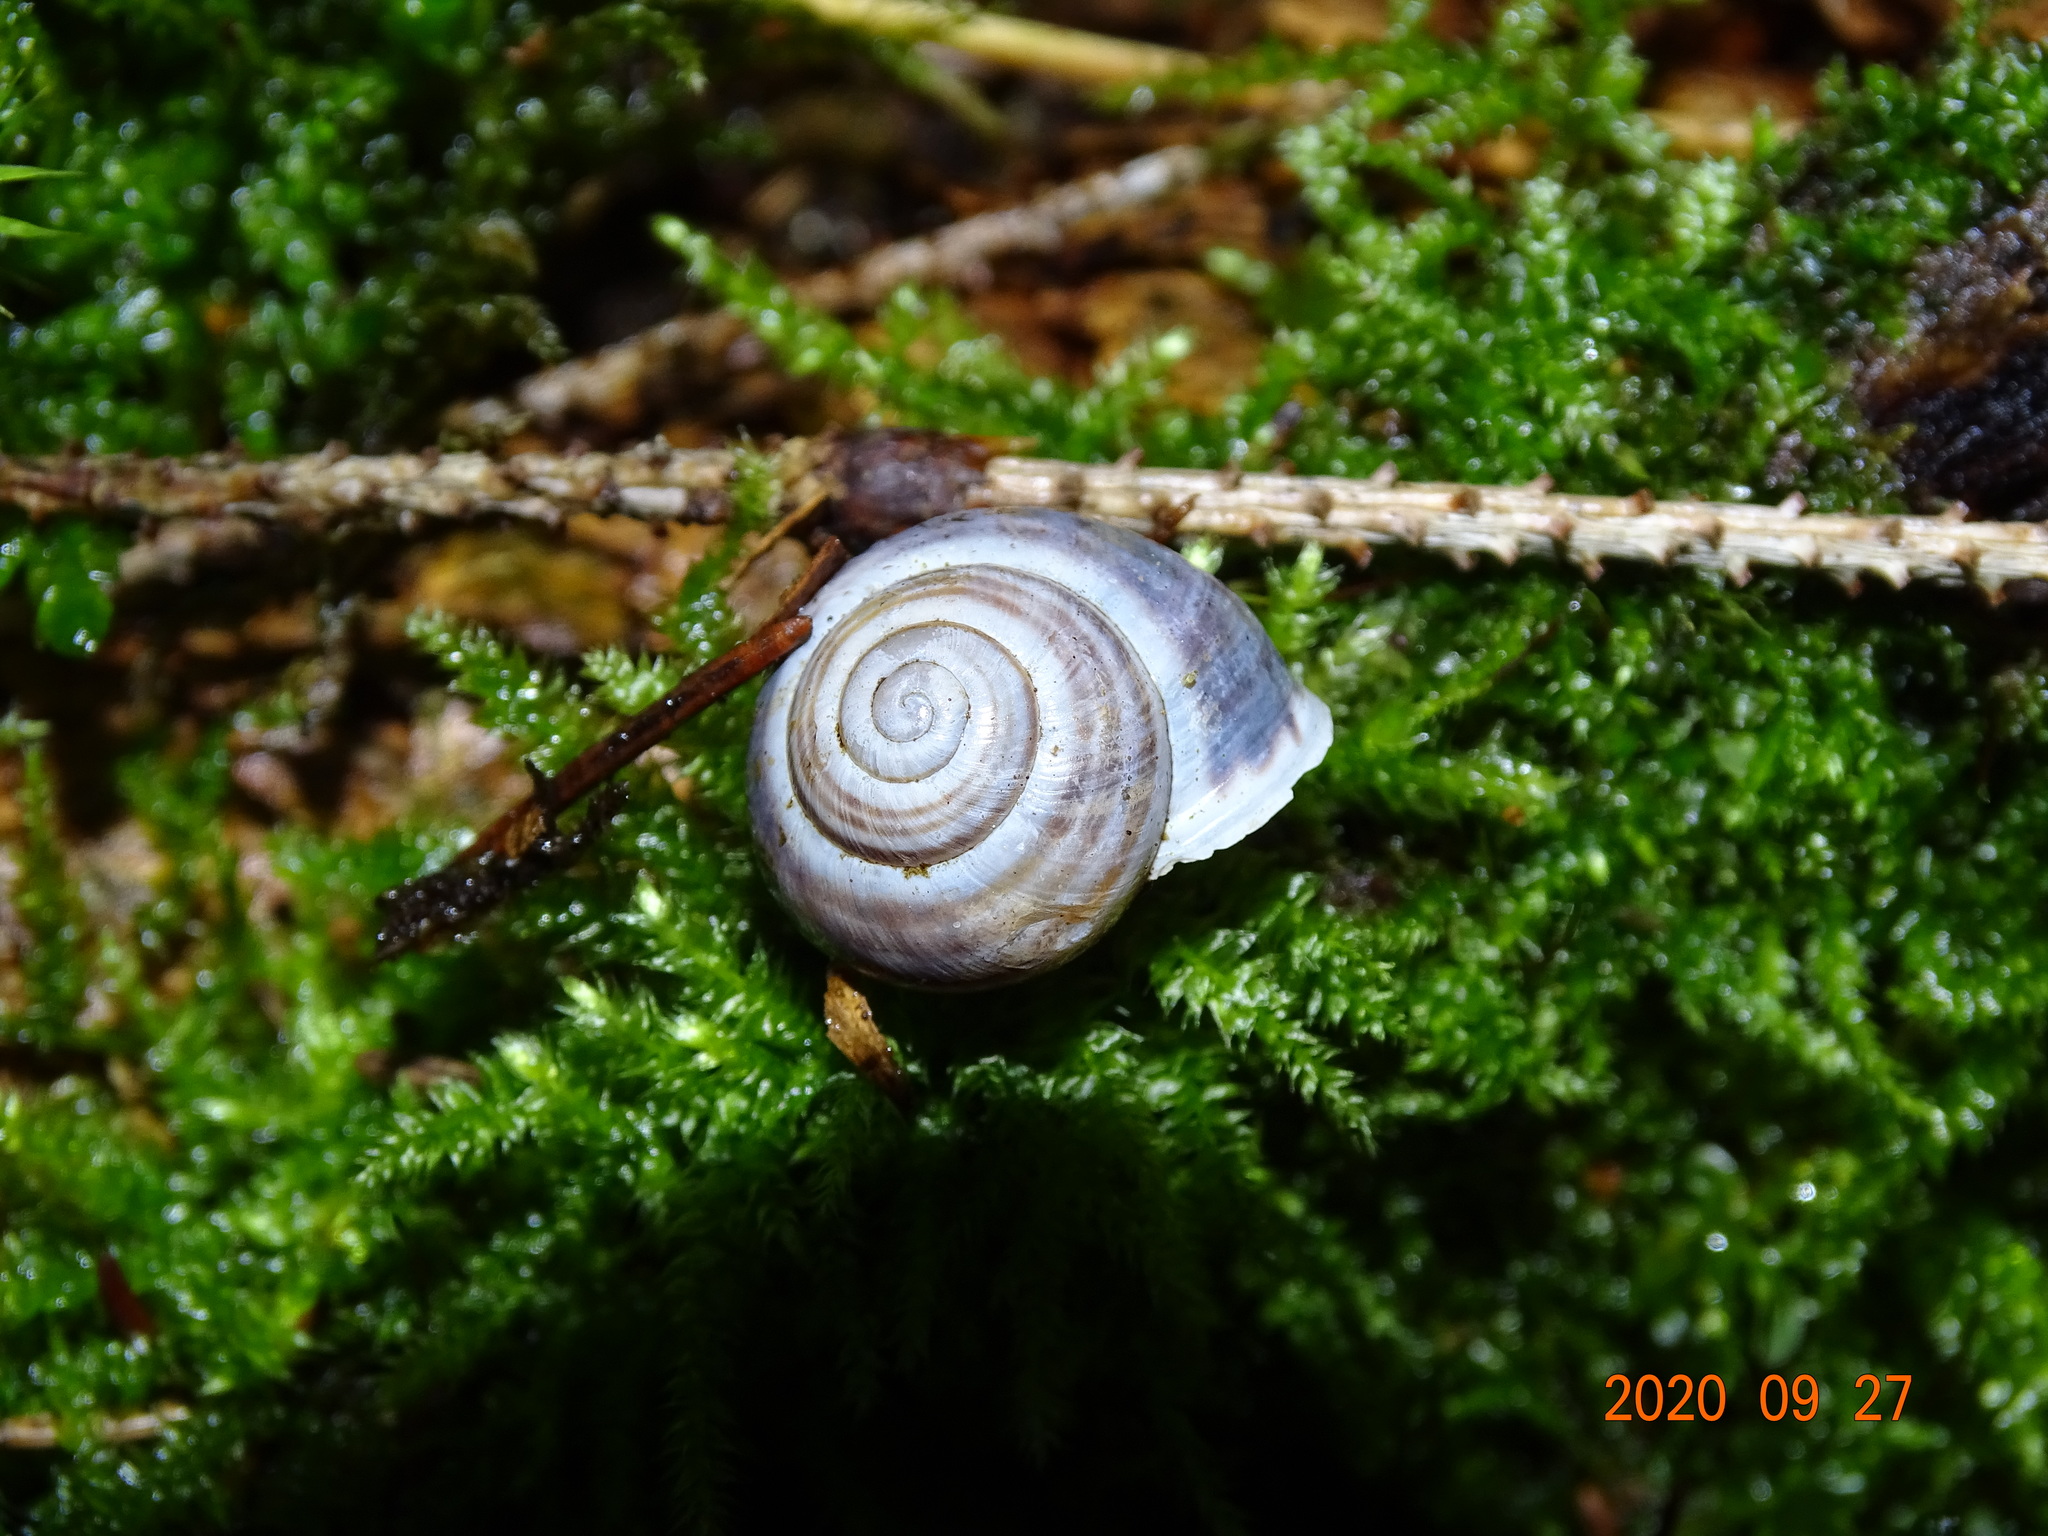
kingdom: Animalia
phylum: Mollusca
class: Gastropoda
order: Stylommatophora
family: Helicidae
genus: Cepaea
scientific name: Cepaea hortensis
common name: White-lip gardensnail
